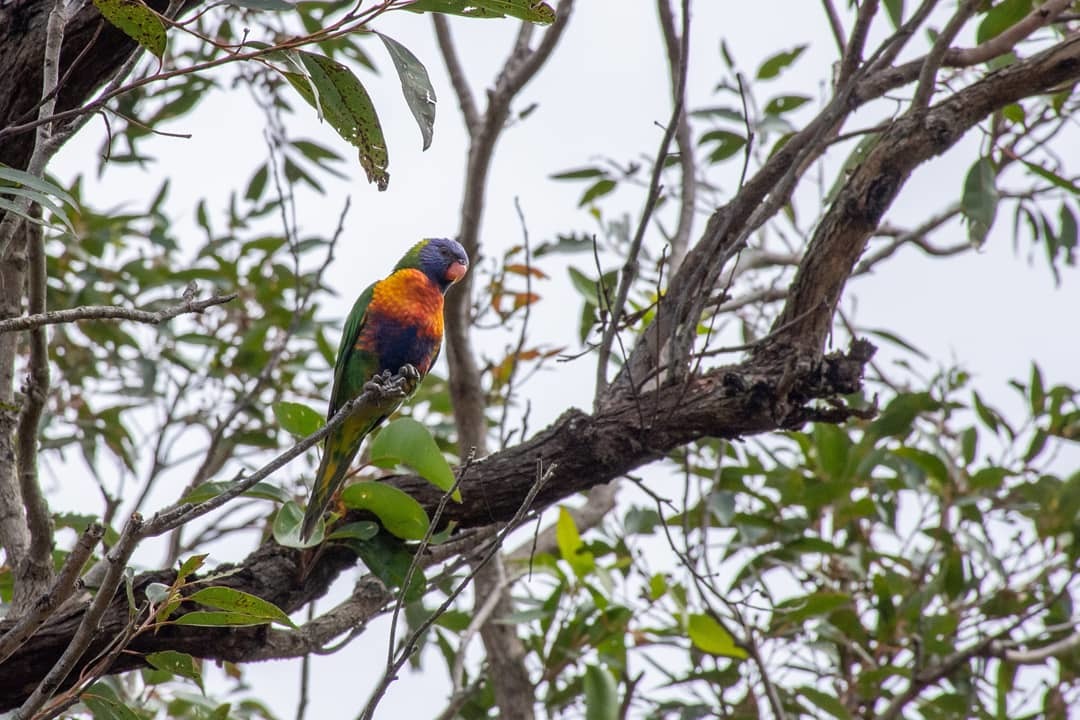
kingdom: Animalia
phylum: Chordata
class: Aves
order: Psittaciformes
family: Psittacidae
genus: Trichoglossus
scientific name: Trichoglossus haematodus
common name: Coconut lorikeet
